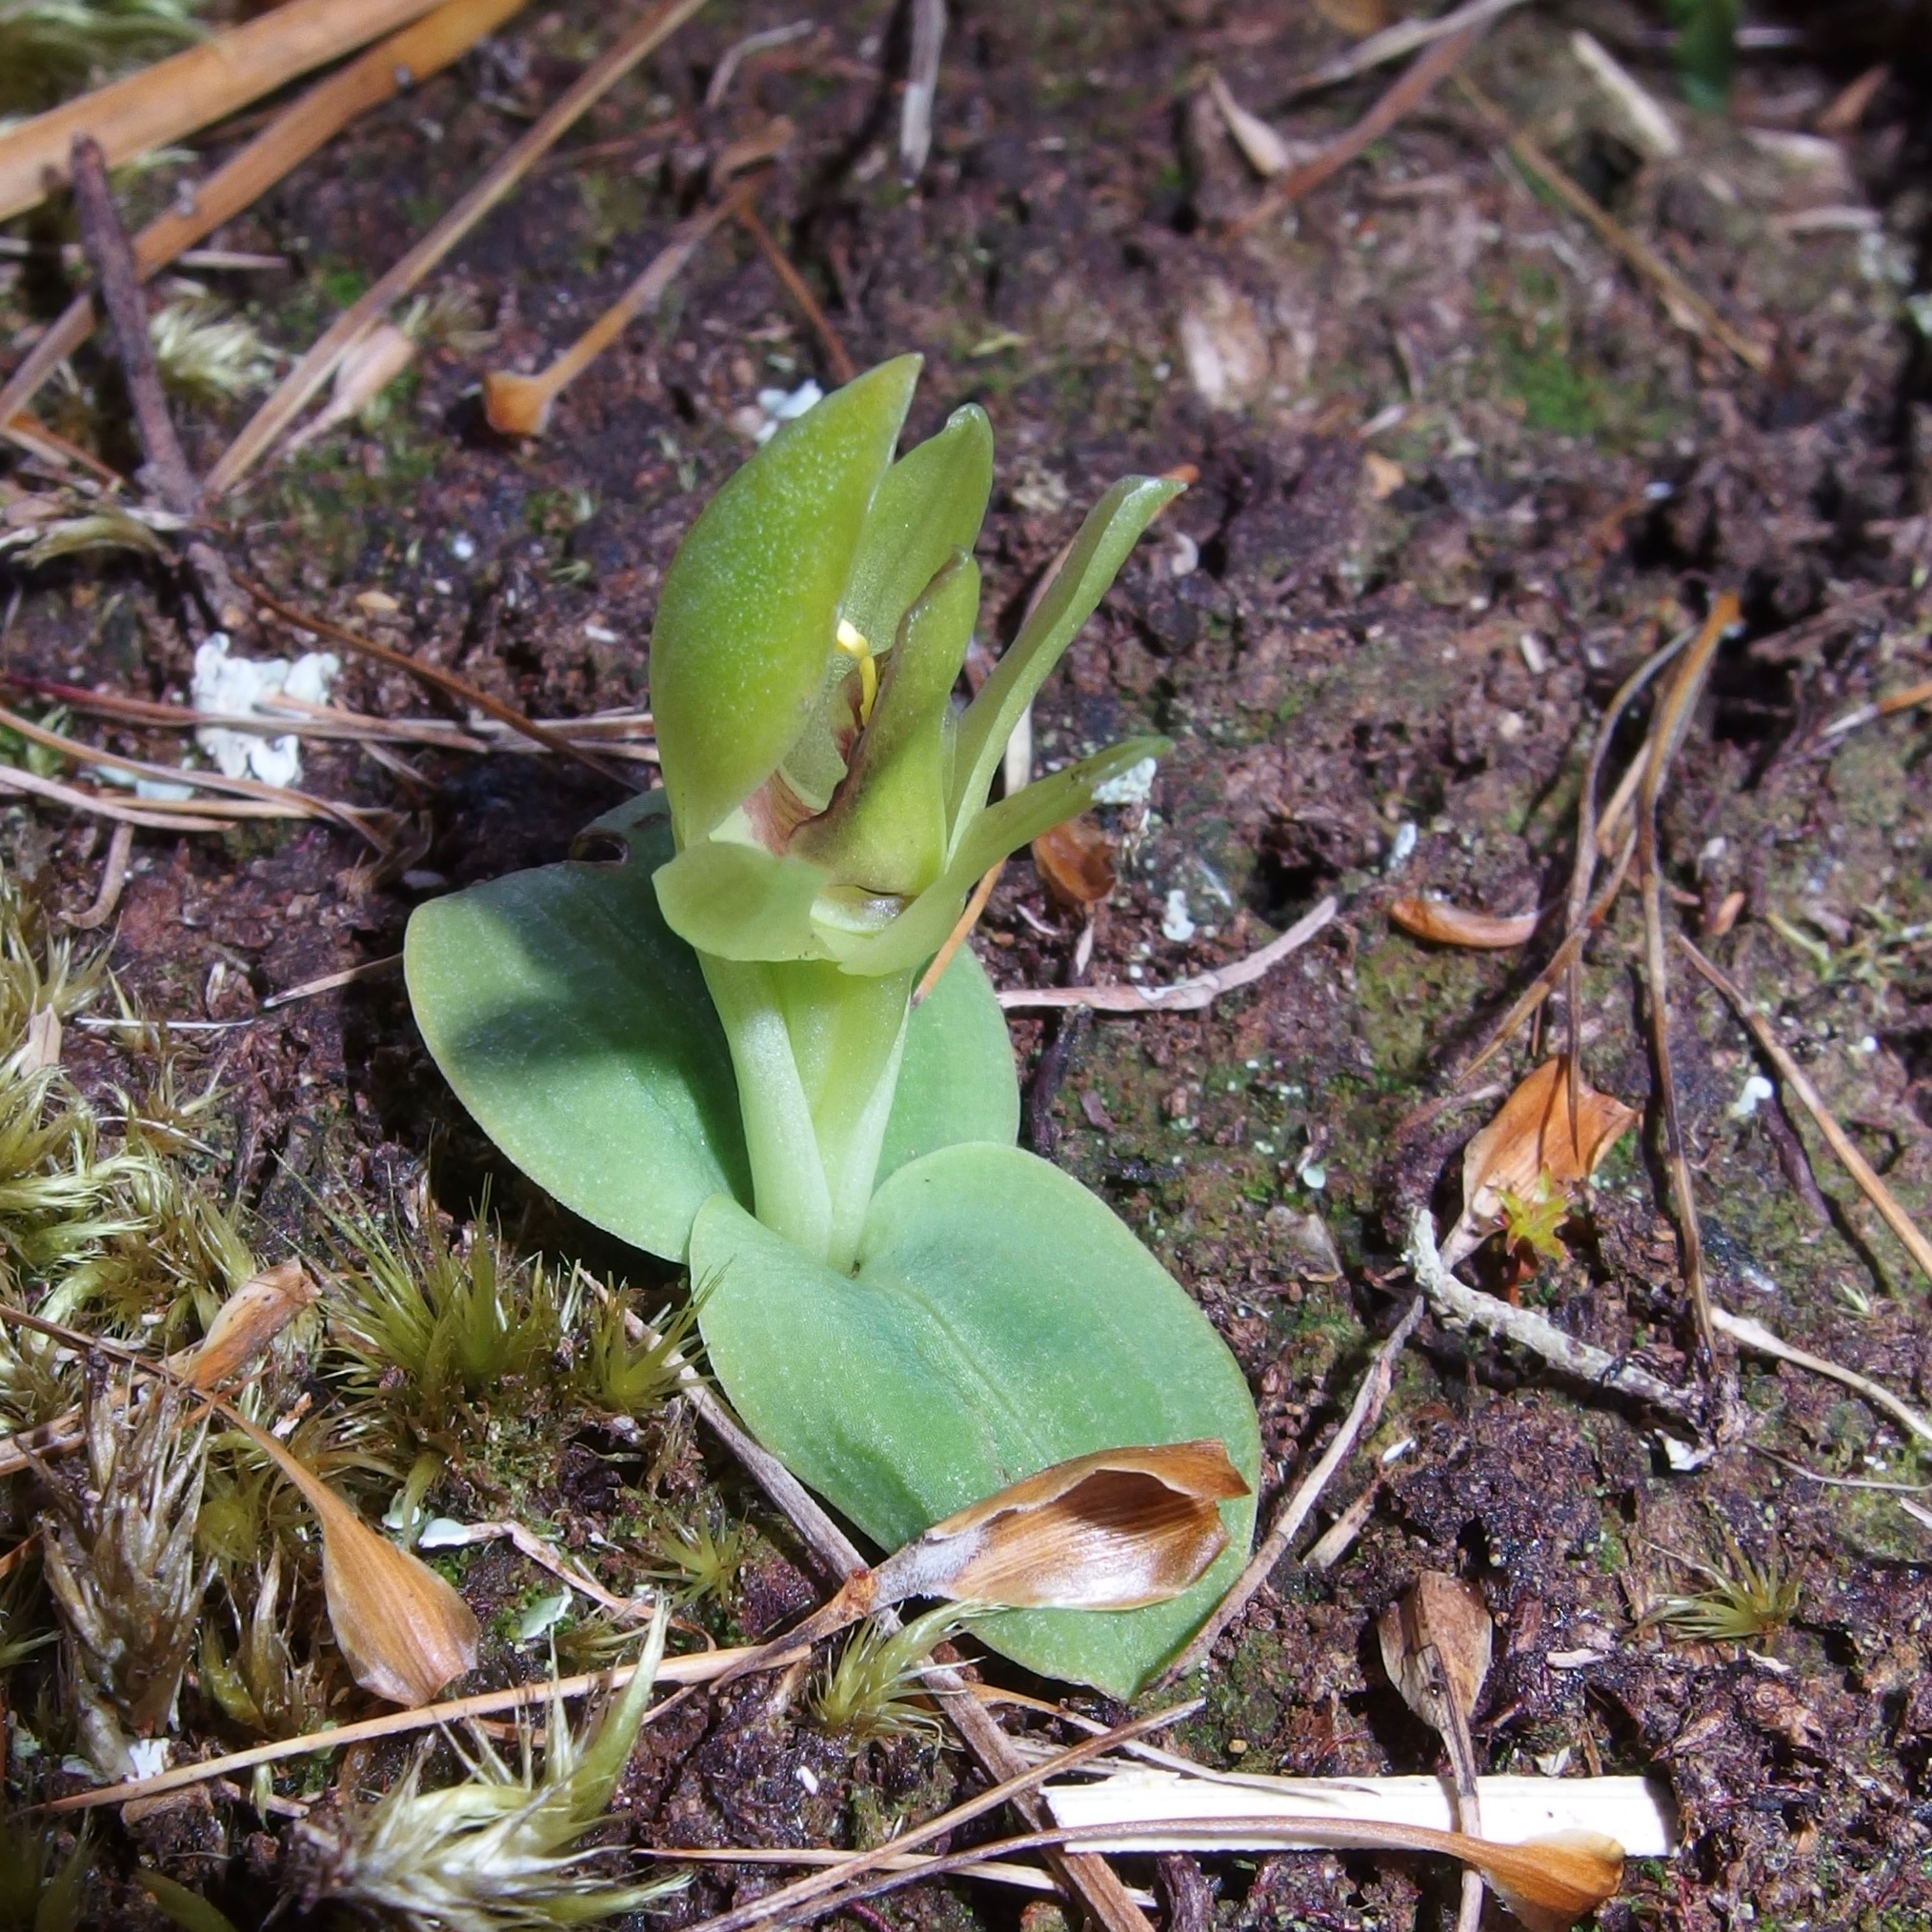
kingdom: Plantae
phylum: Tracheophyta
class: Liliopsida
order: Asparagales
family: Orchidaceae
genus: Chiloglottis
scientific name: Chiloglottis cornuta
